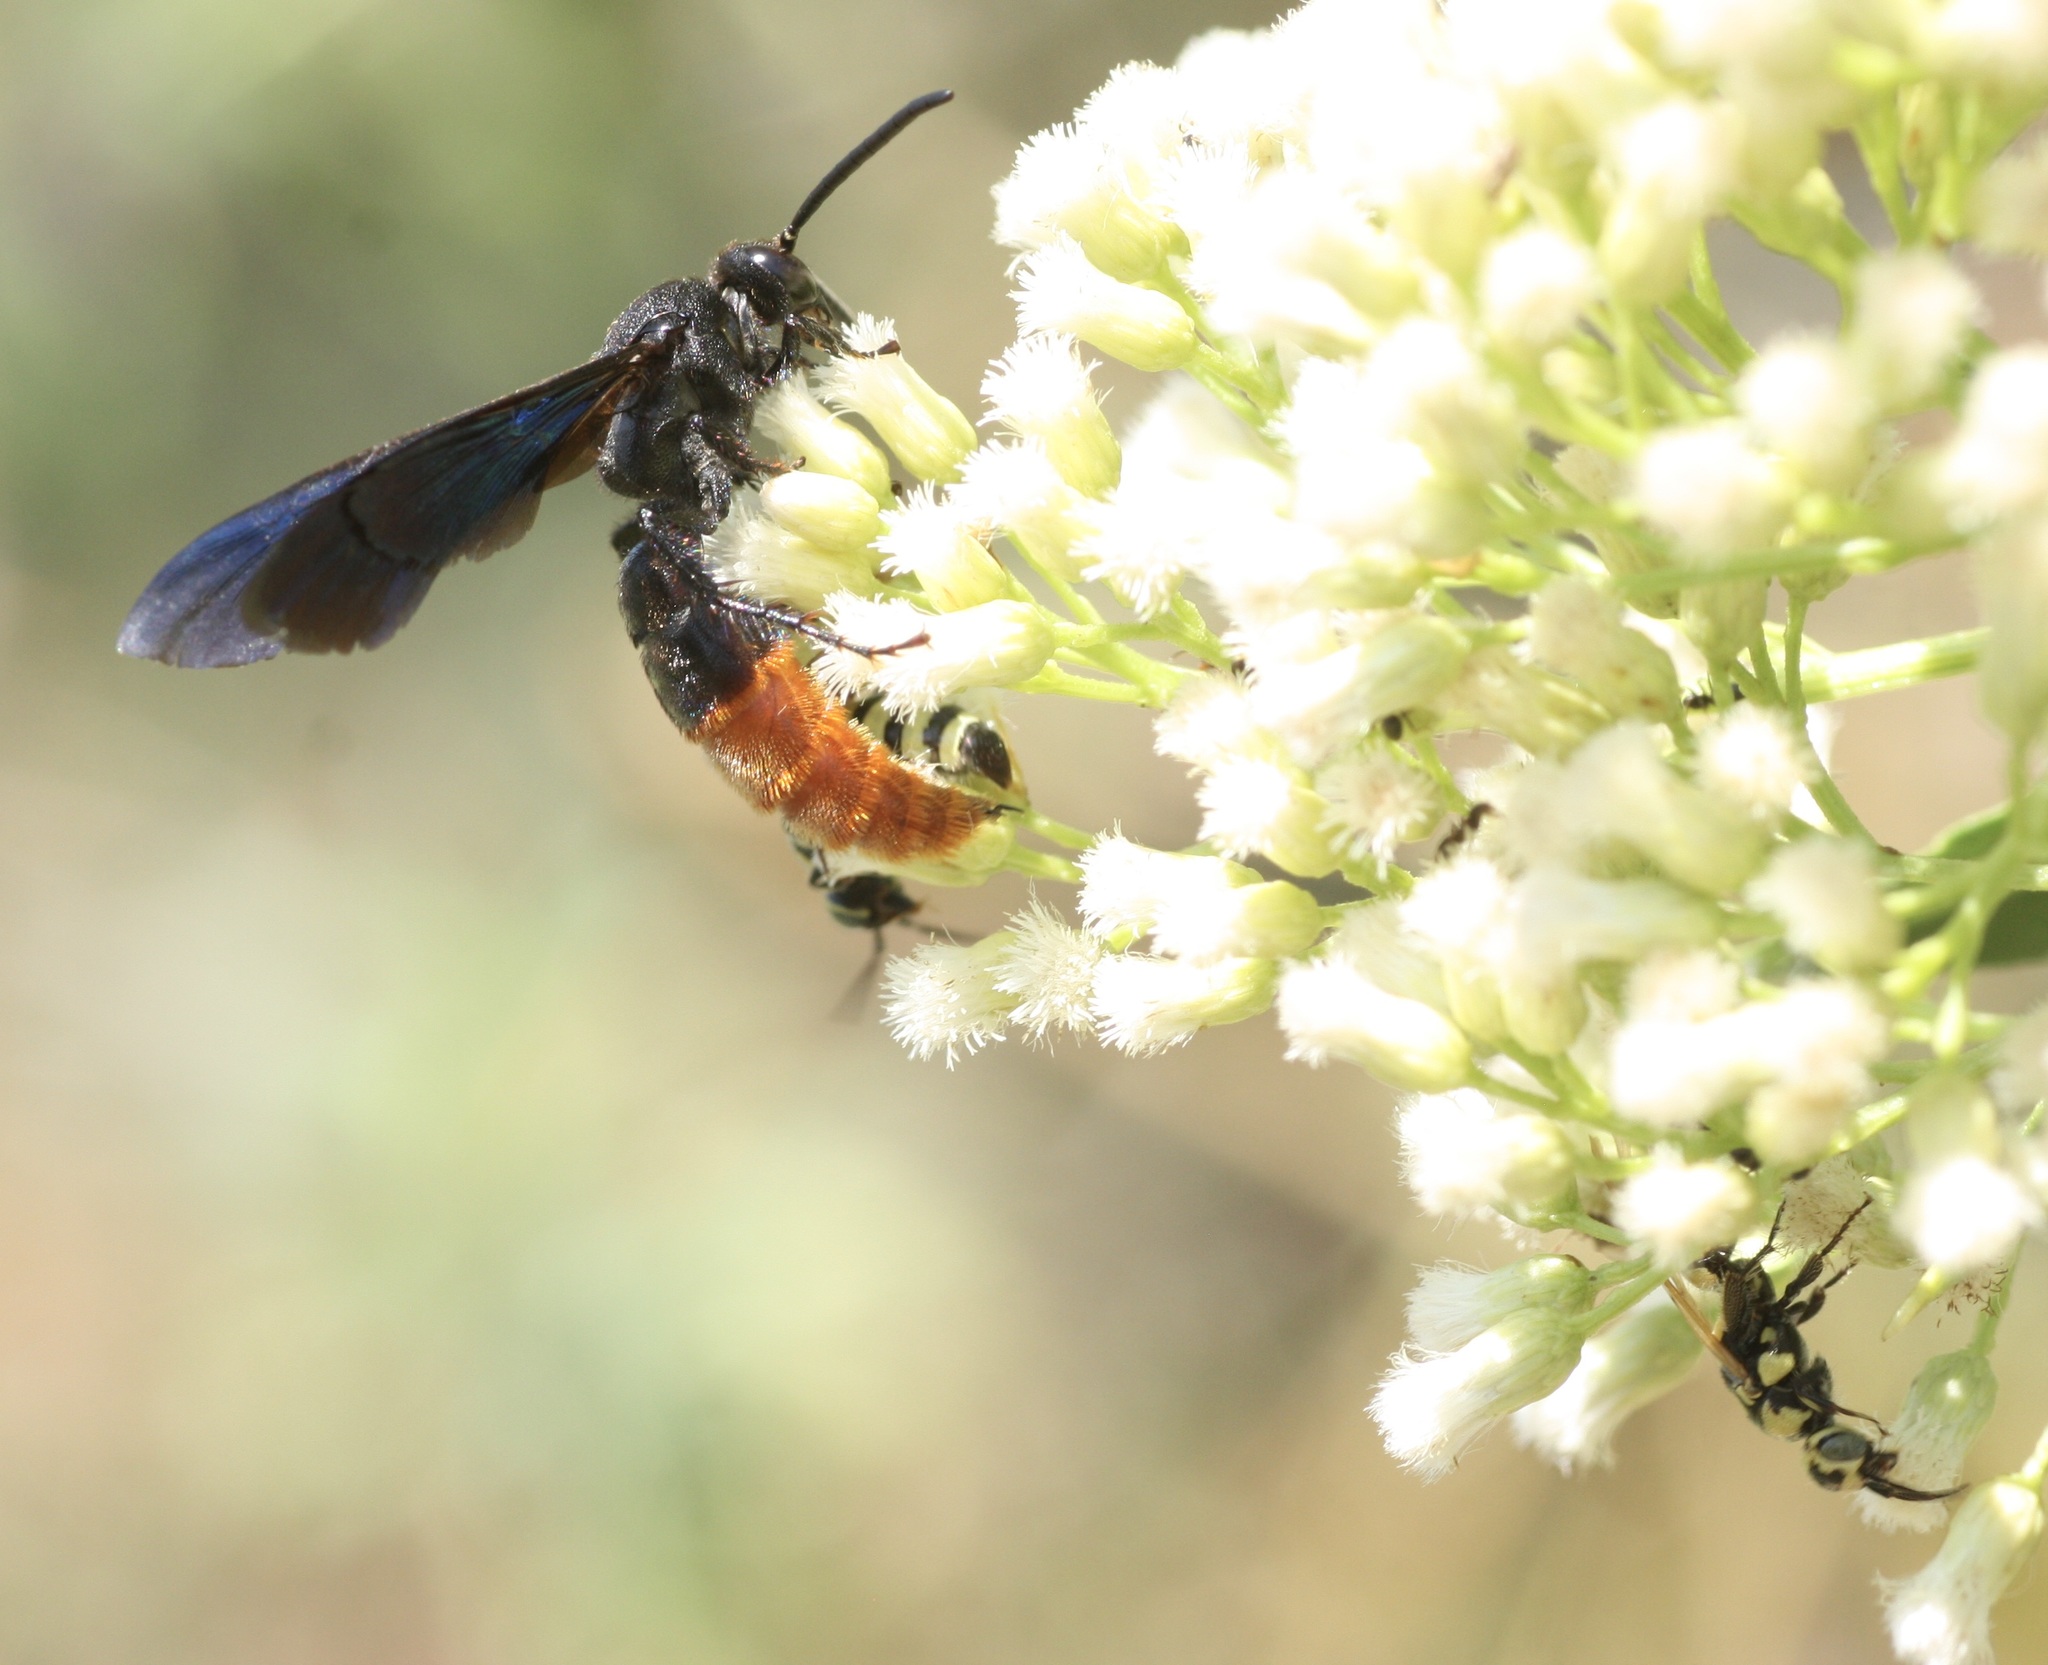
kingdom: Animalia
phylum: Arthropoda
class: Insecta
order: Hymenoptera
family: Scoliidae
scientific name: Scoliidae
